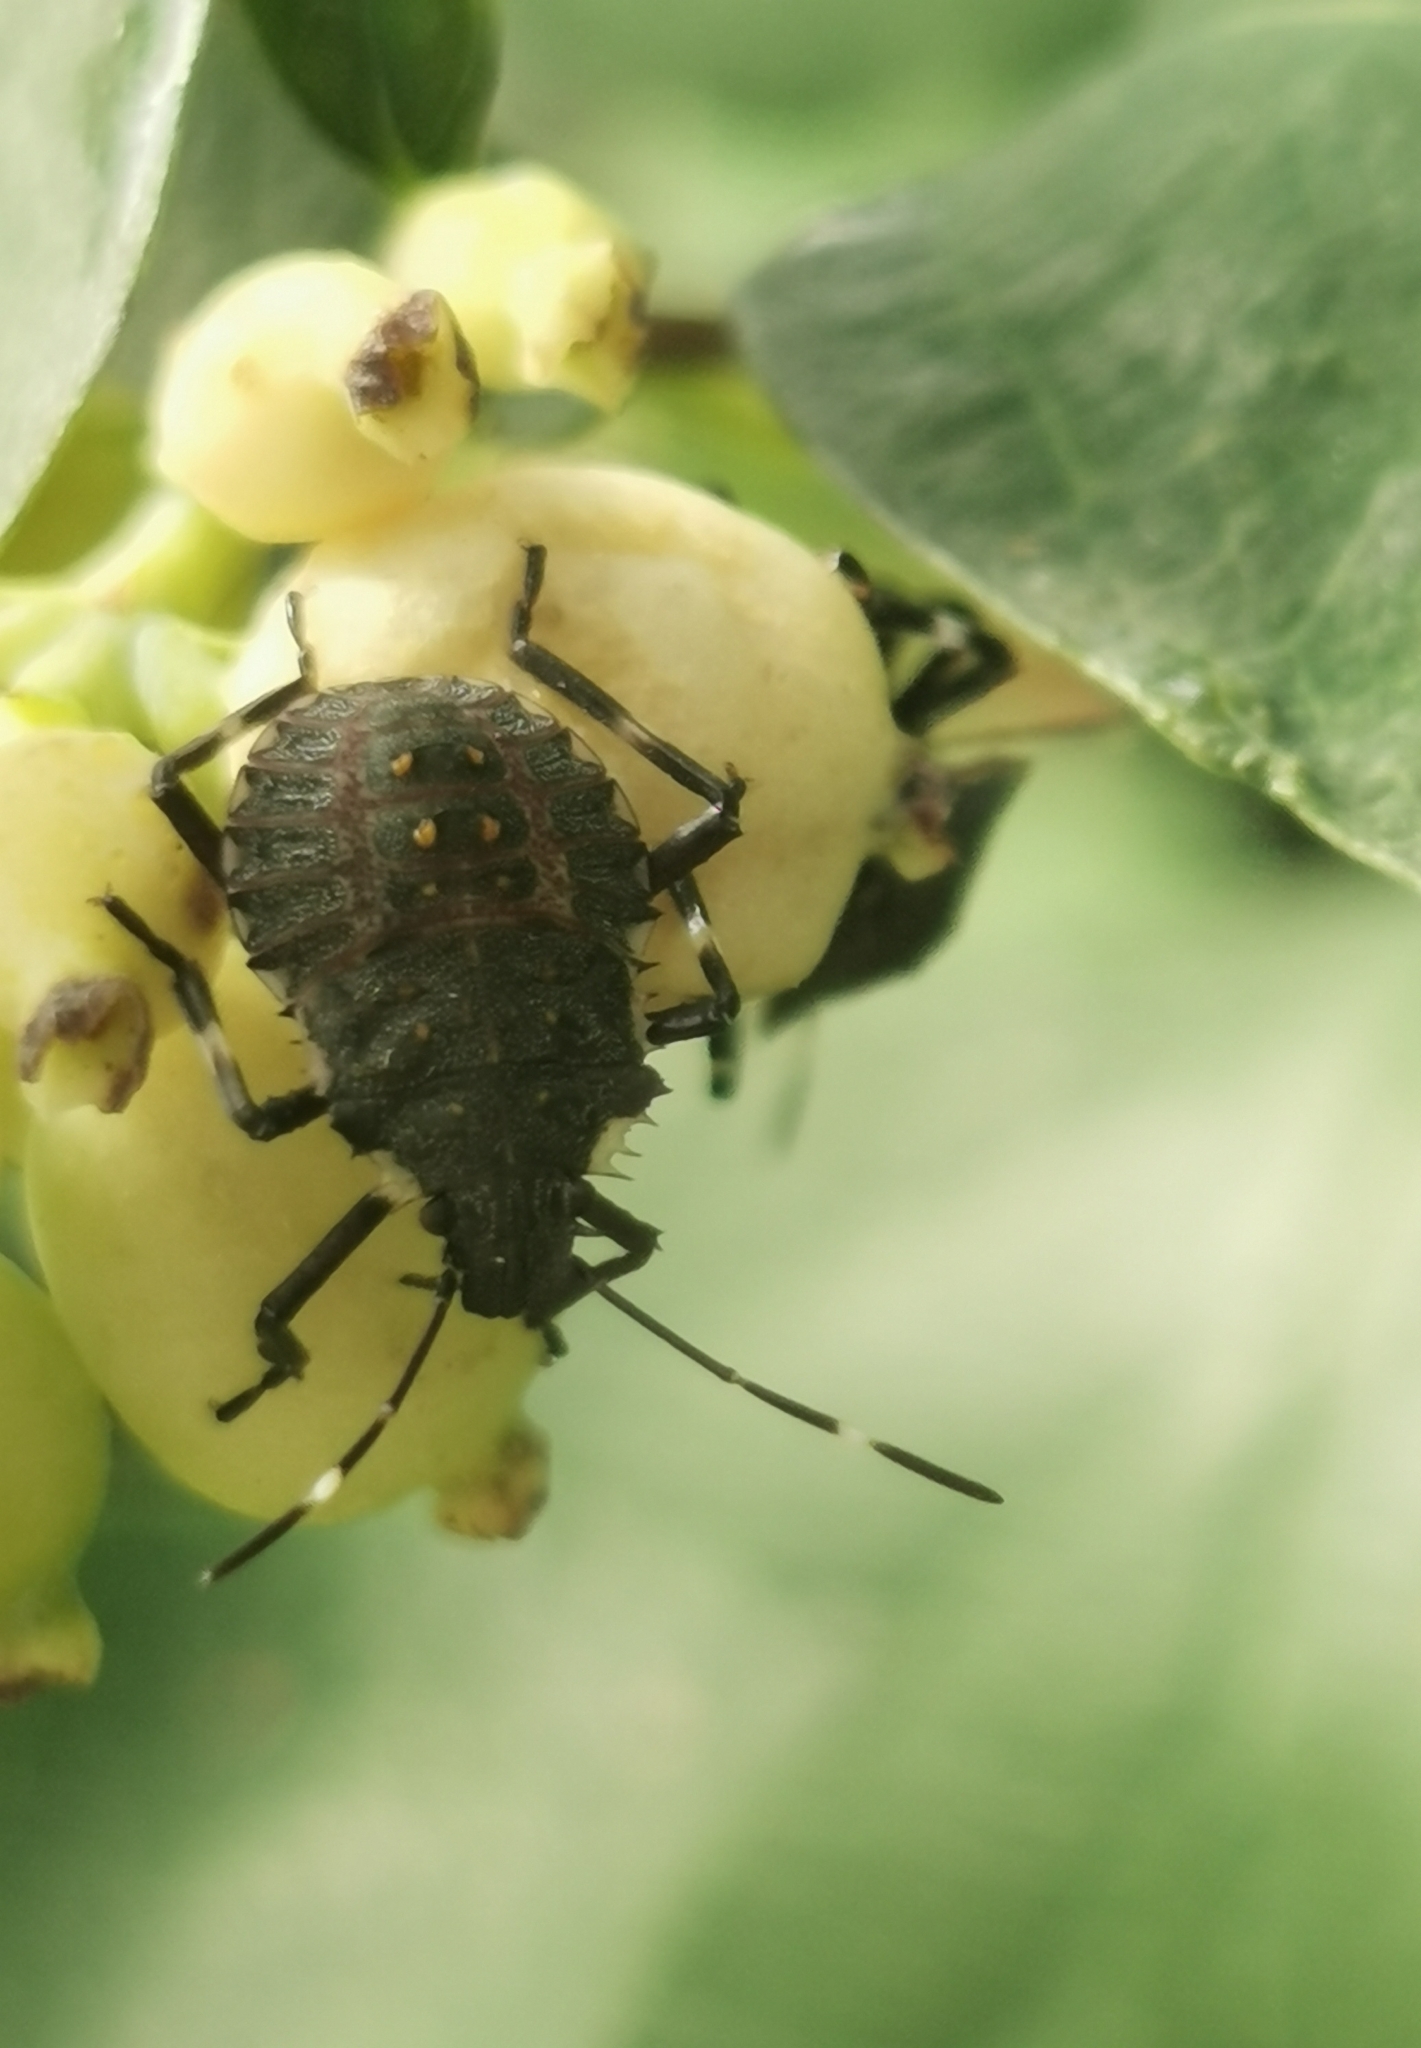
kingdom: Animalia
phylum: Arthropoda
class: Insecta
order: Hemiptera
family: Pentatomidae
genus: Halyomorpha
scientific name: Halyomorpha halys
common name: Brown marmorated stink bug
